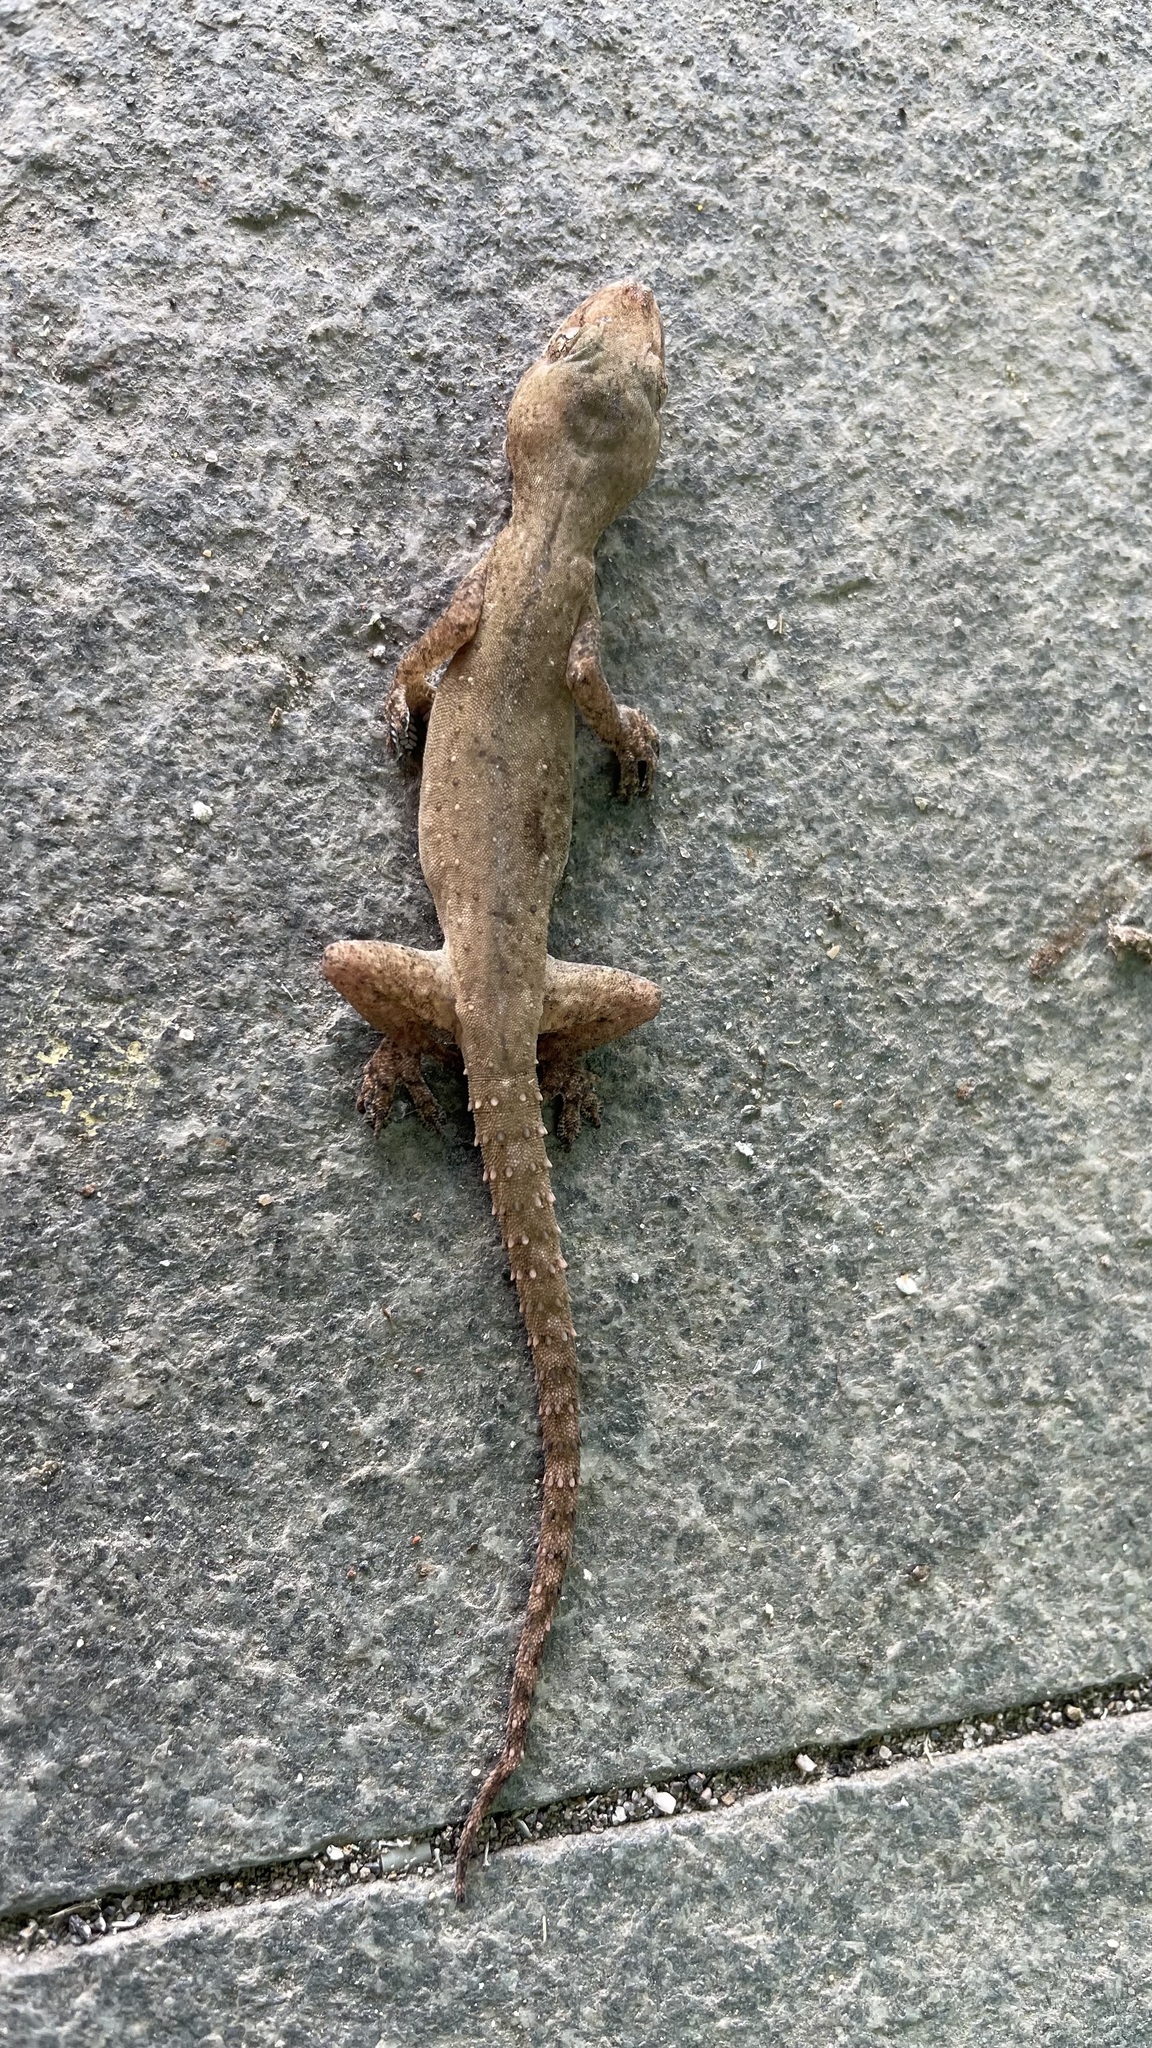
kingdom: Animalia
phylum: Chordata
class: Squamata
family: Gekkonidae
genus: Hemidactylus
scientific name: Hemidactylus frenatus
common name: Common house gecko
